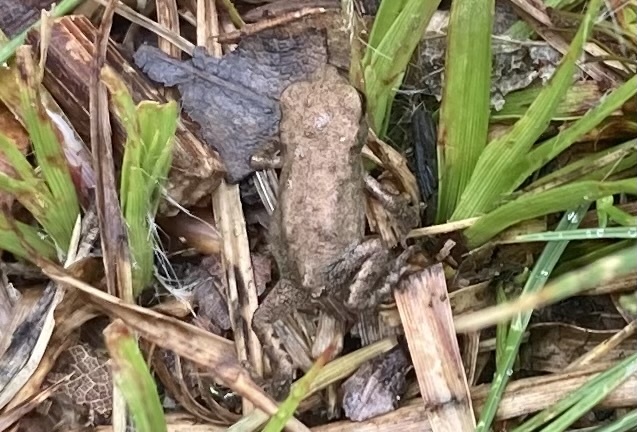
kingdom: Animalia
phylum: Chordata
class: Amphibia
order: Anura
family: Bufonidae
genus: Bufo
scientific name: Bufo bufo
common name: Common toad
